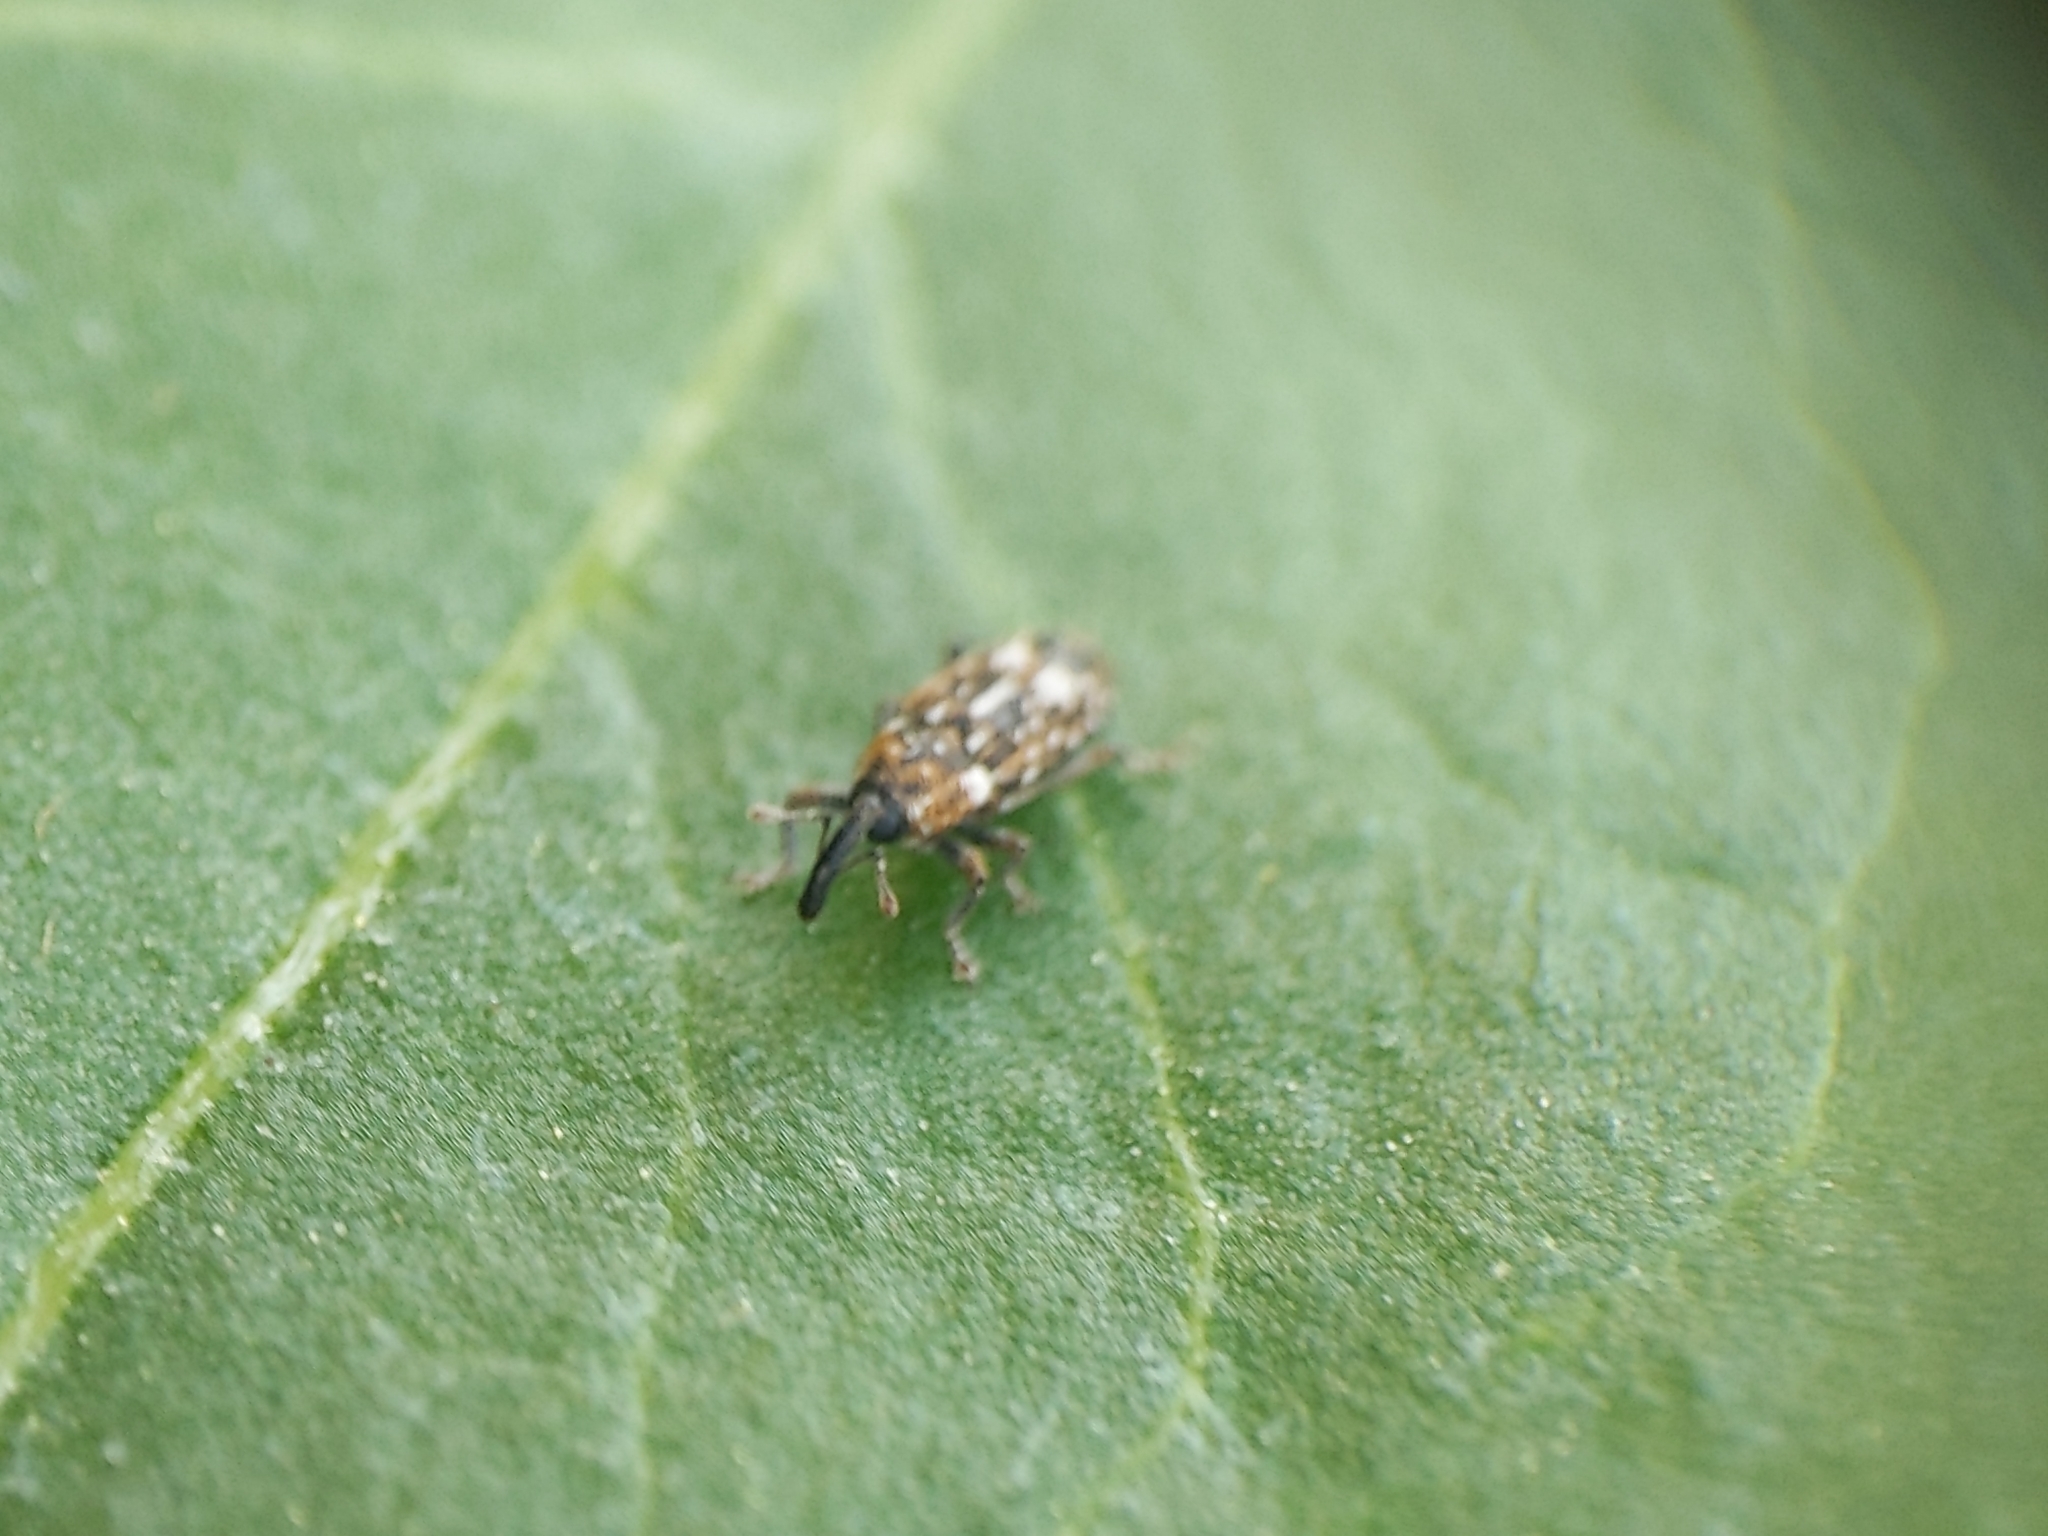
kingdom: Animalia
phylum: Arthropoda
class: Insecta
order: Coleoptera
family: Curculionidae
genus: Cosmobaris
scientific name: Cosmobaris scolopacea
